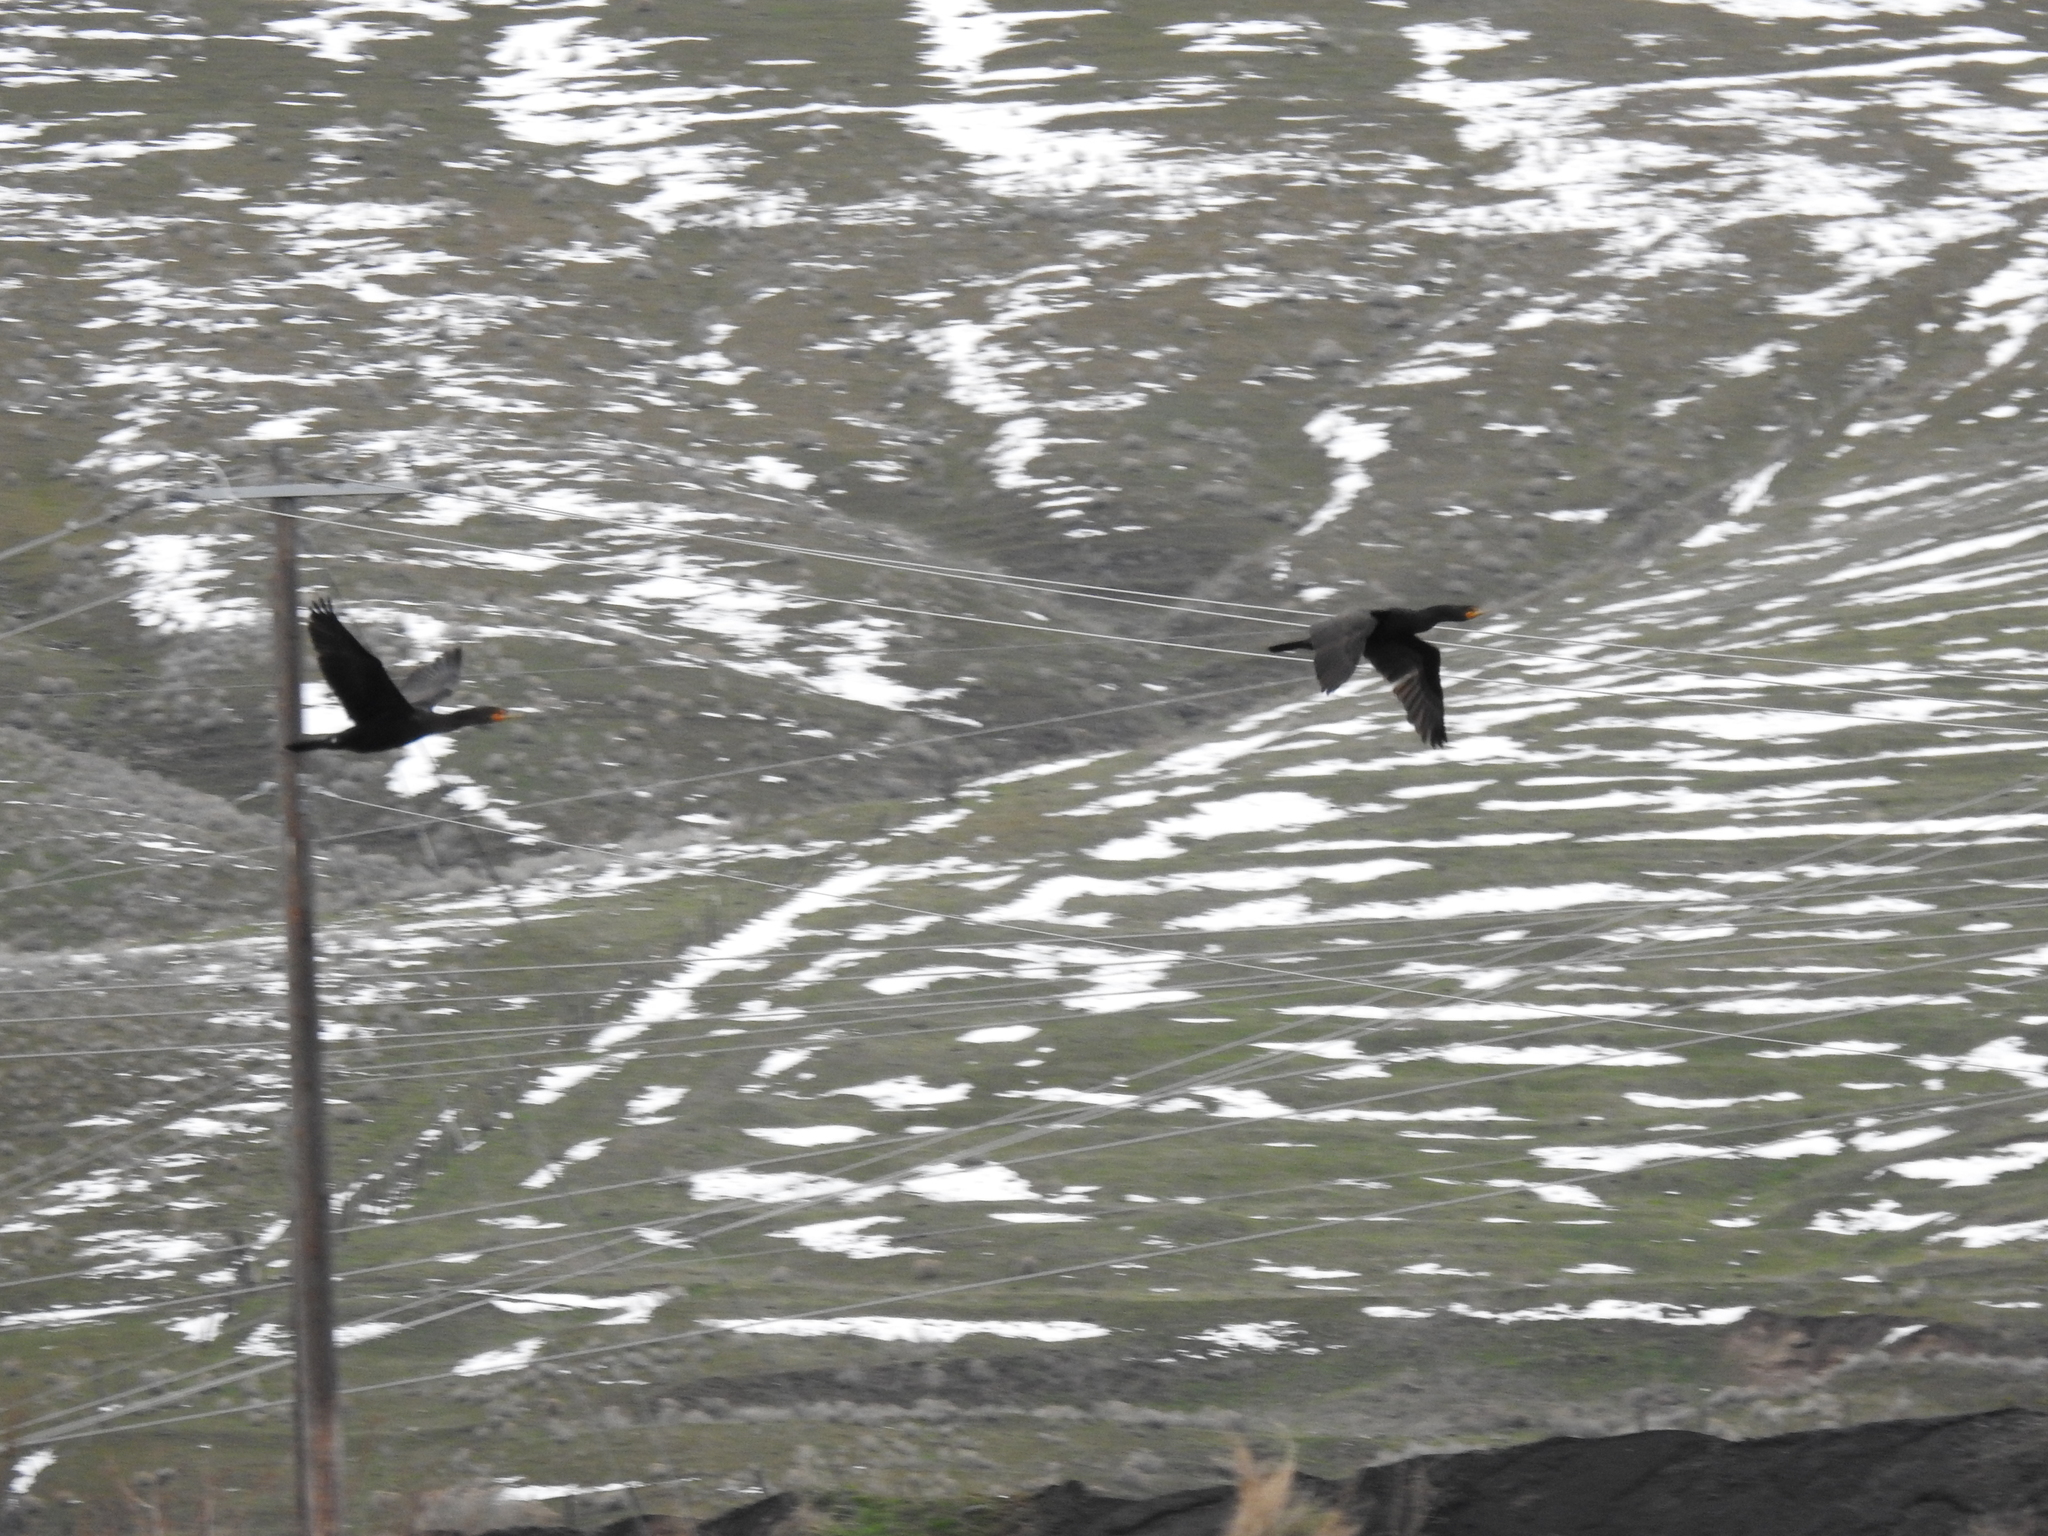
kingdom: Animalia
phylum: Chordata
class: Aves
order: Suliformes
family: Phalacrocoracidae
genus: Phalacrocorax
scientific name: Phalacrocorax auritus
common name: Double-crested cormorant
